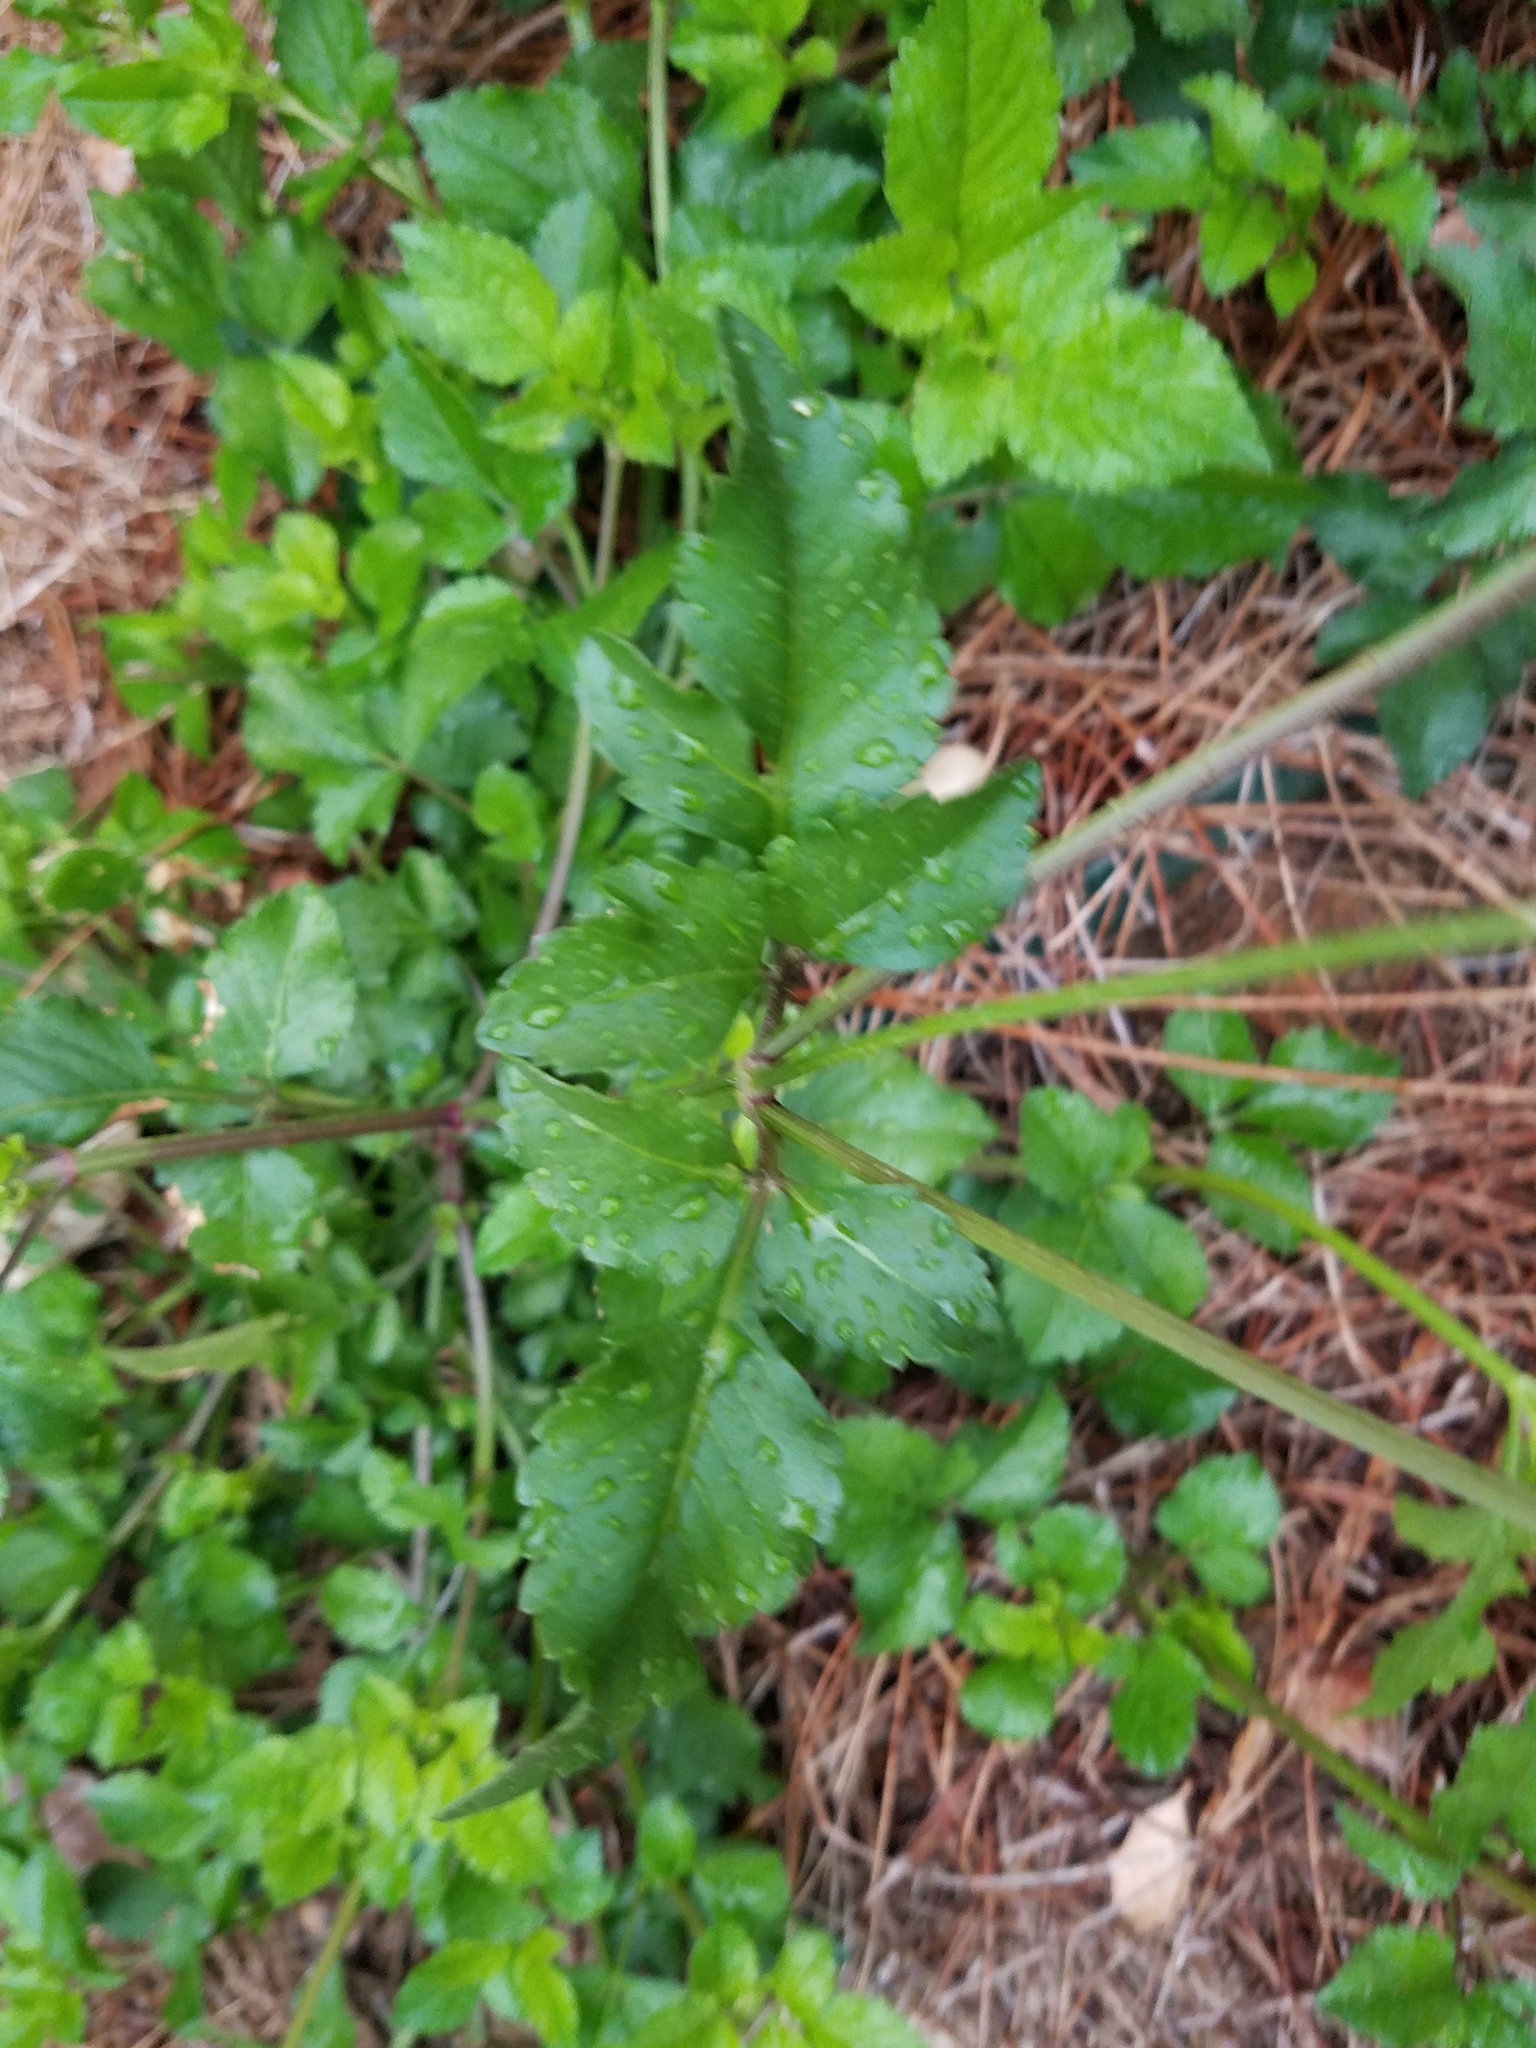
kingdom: Plantae
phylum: Tracheophyta
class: Magnoliopsida
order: Asterales
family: Asteraceae
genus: Bidens
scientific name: Bidens alba
